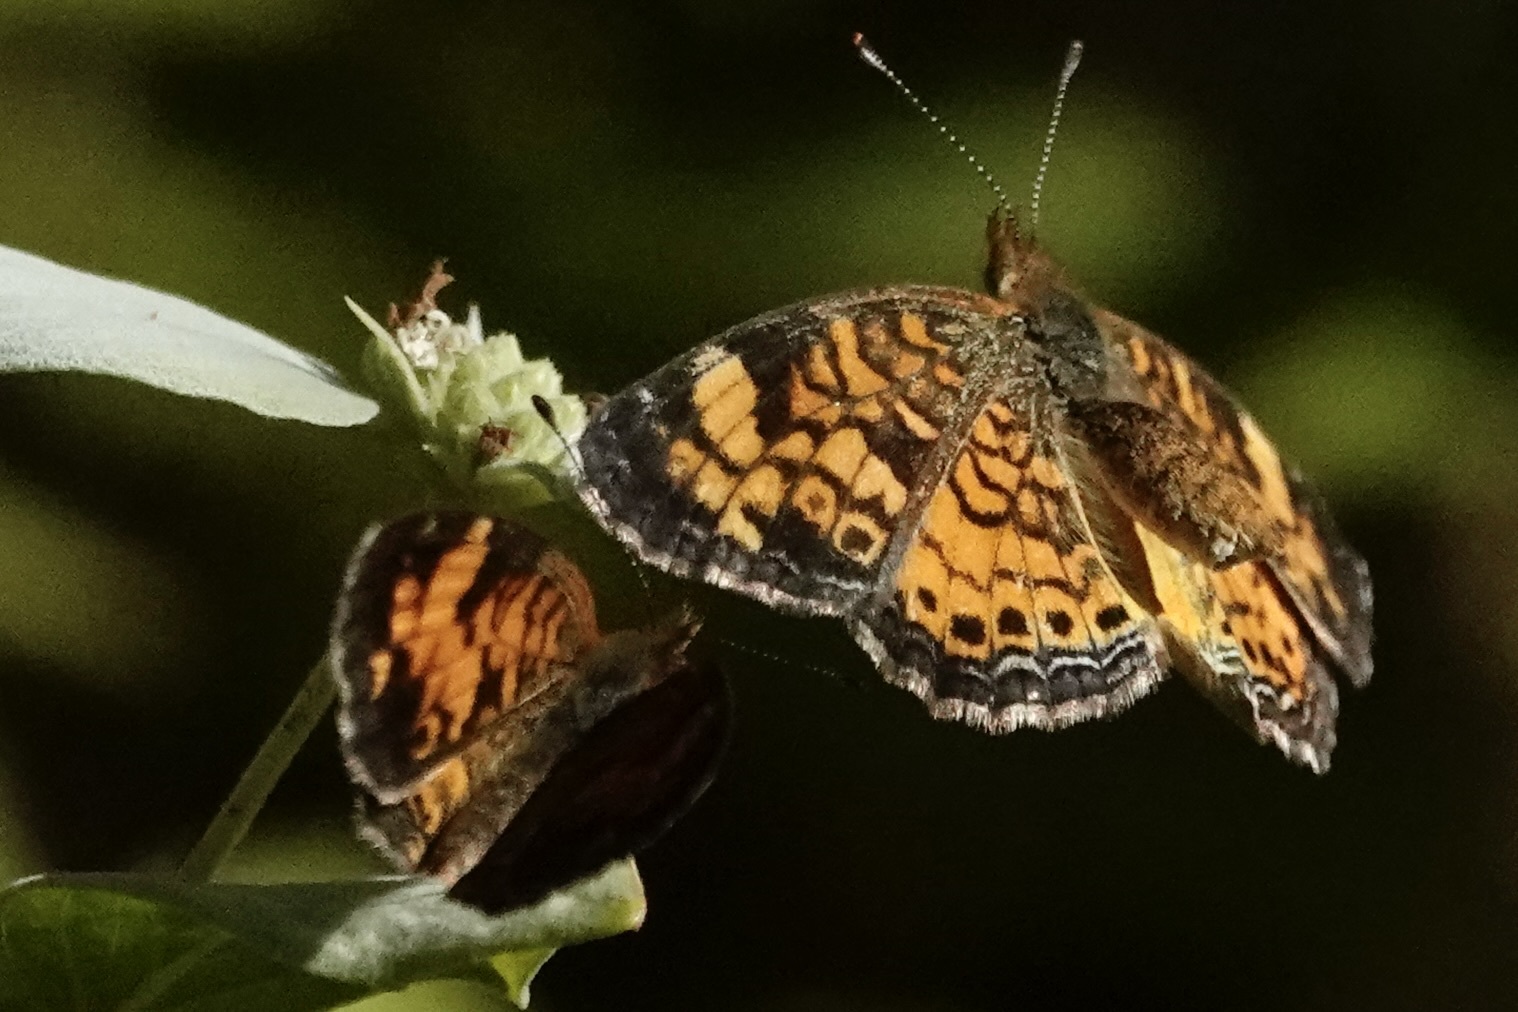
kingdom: Animalia
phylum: Arthropoda
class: Insecta
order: Lepidoptera
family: Nymphalidae
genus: Phyciodes
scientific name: Phyciodes tharos
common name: Pearl crescent
